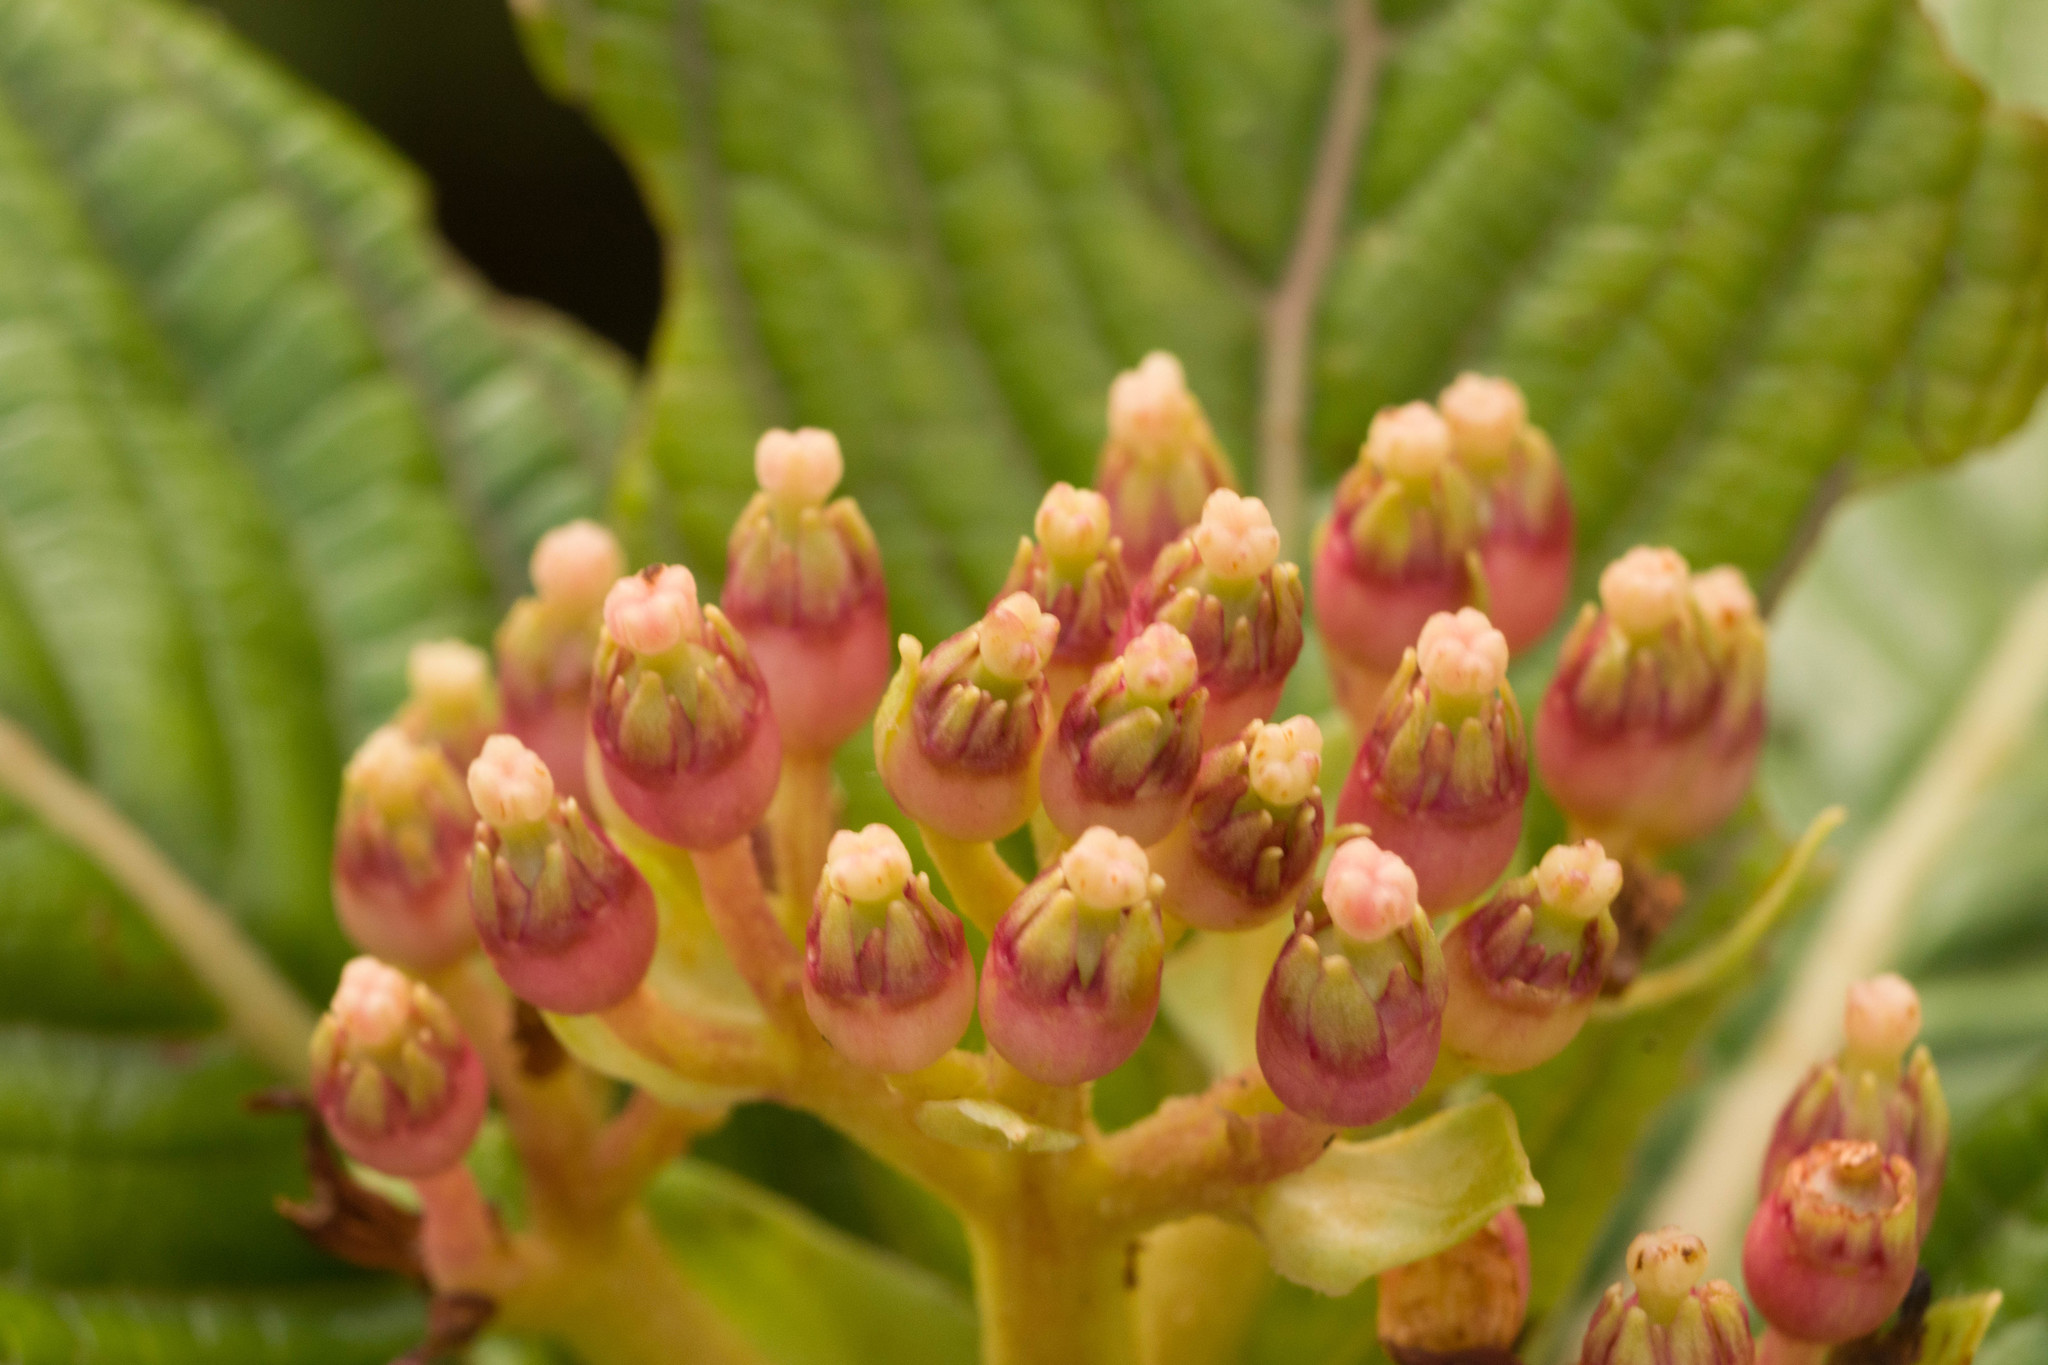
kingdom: Plantae
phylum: Tracheophyta
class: Magnoliopsida
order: Cornales
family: Hydrangeaceae
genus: Hydrangea
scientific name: Hydrangea arguta
